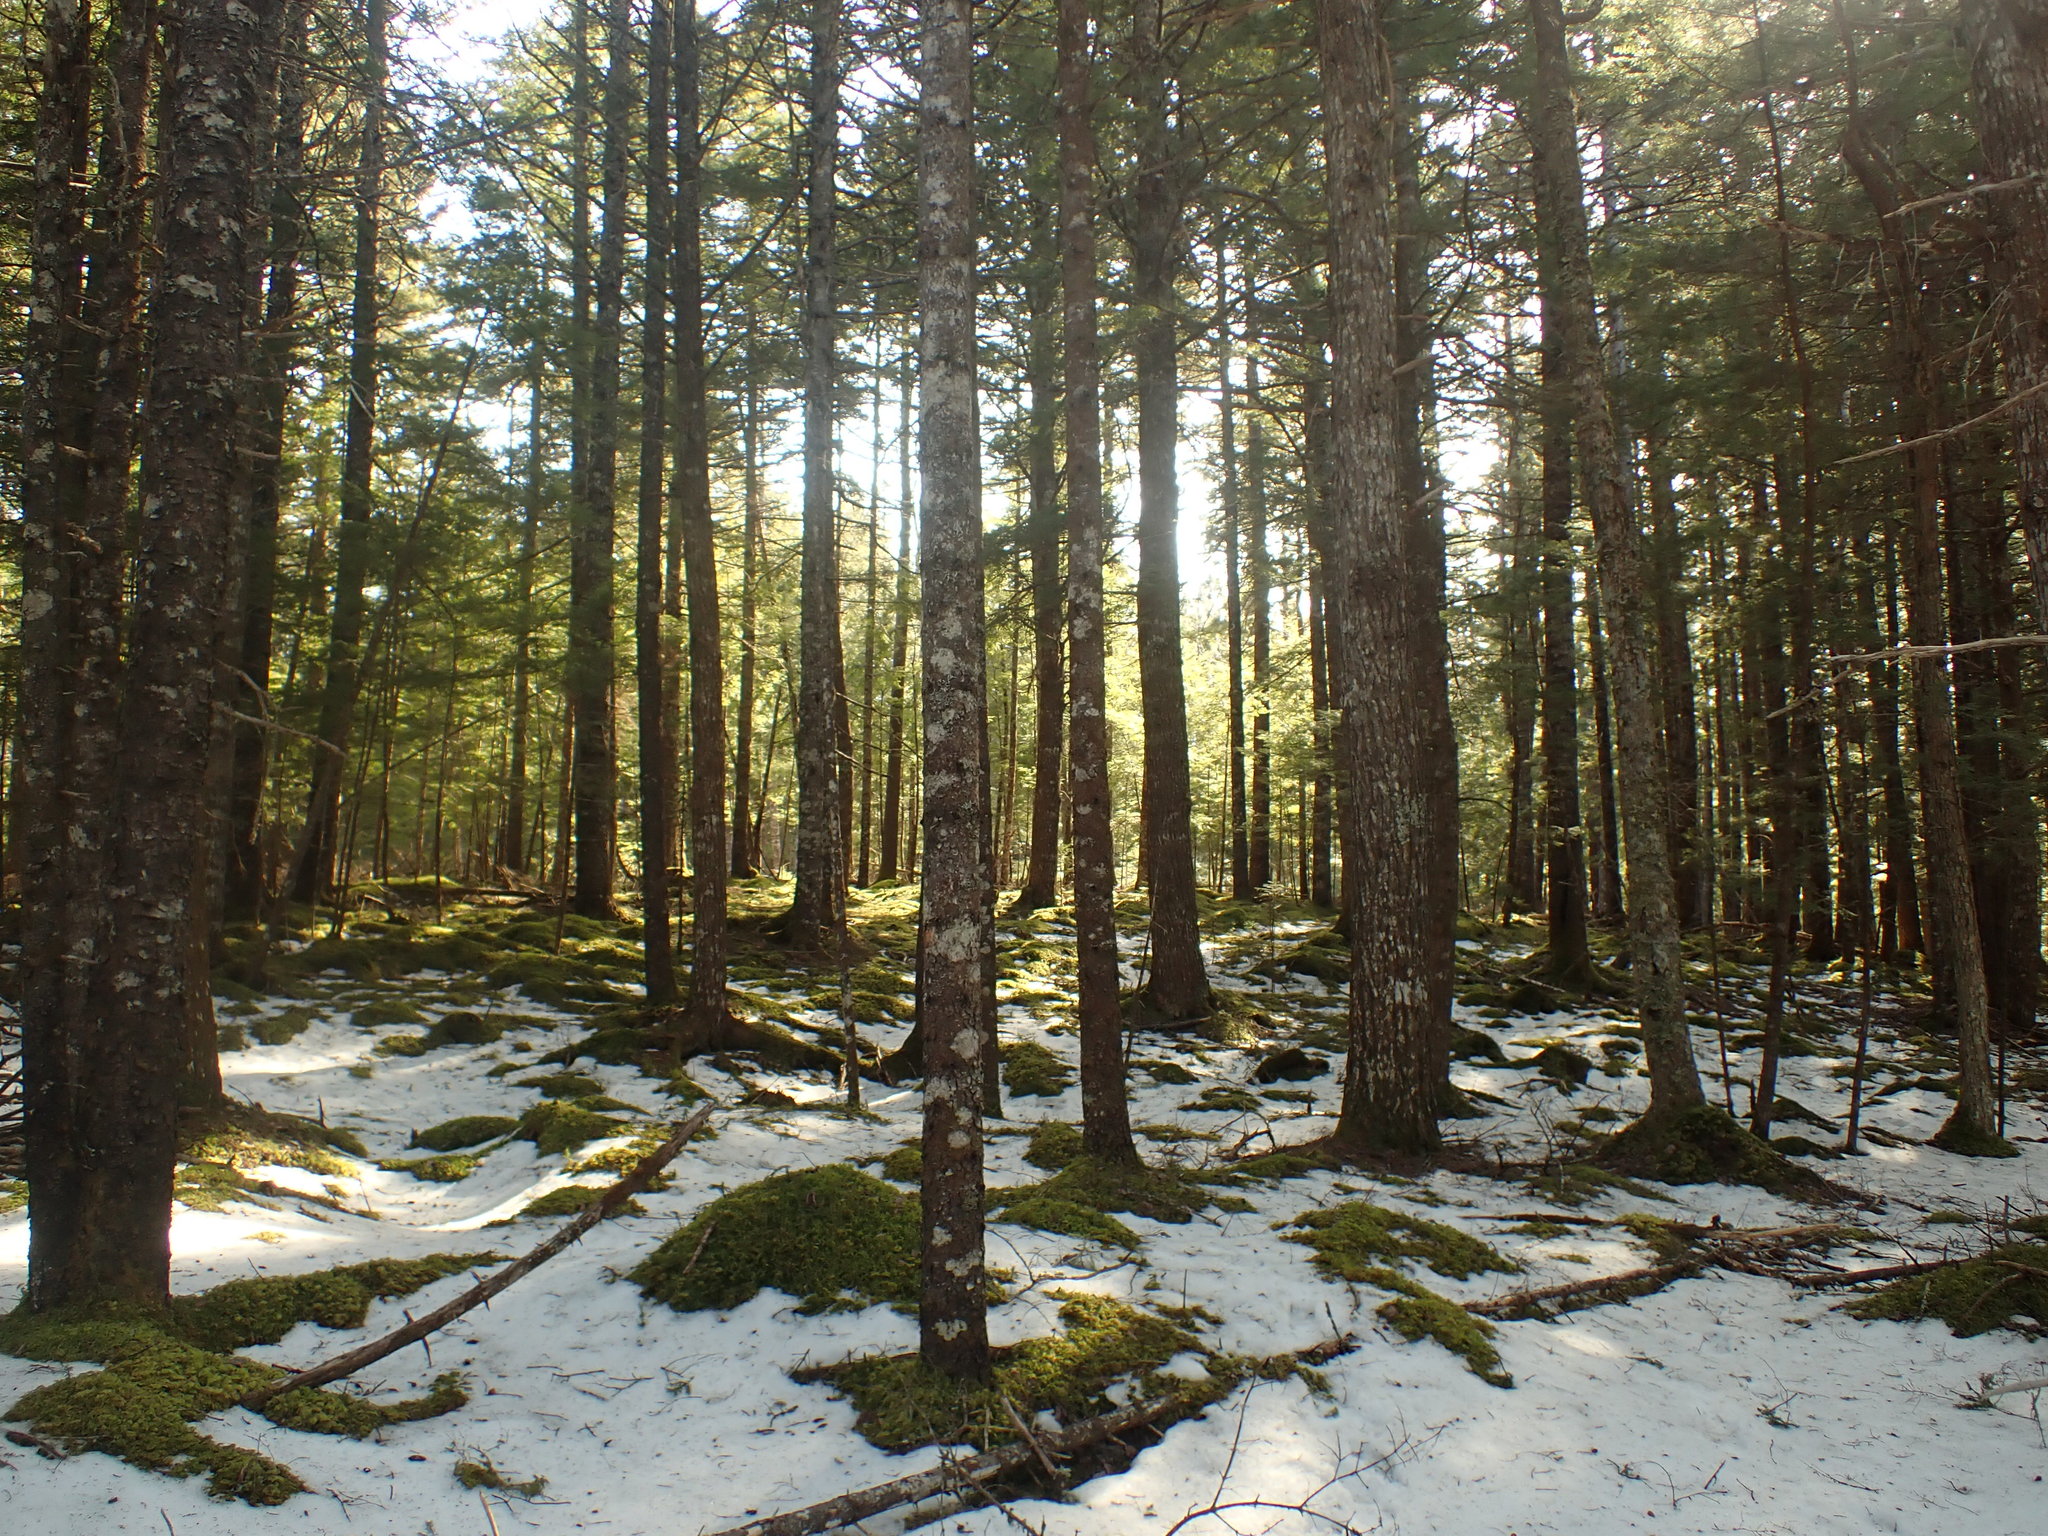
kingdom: Plantae
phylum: Tracheophyta
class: Pinopsida
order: Pinales
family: Pinaceae
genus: Tsuga
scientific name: Tsuga canadensis
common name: Eastern hemlock
